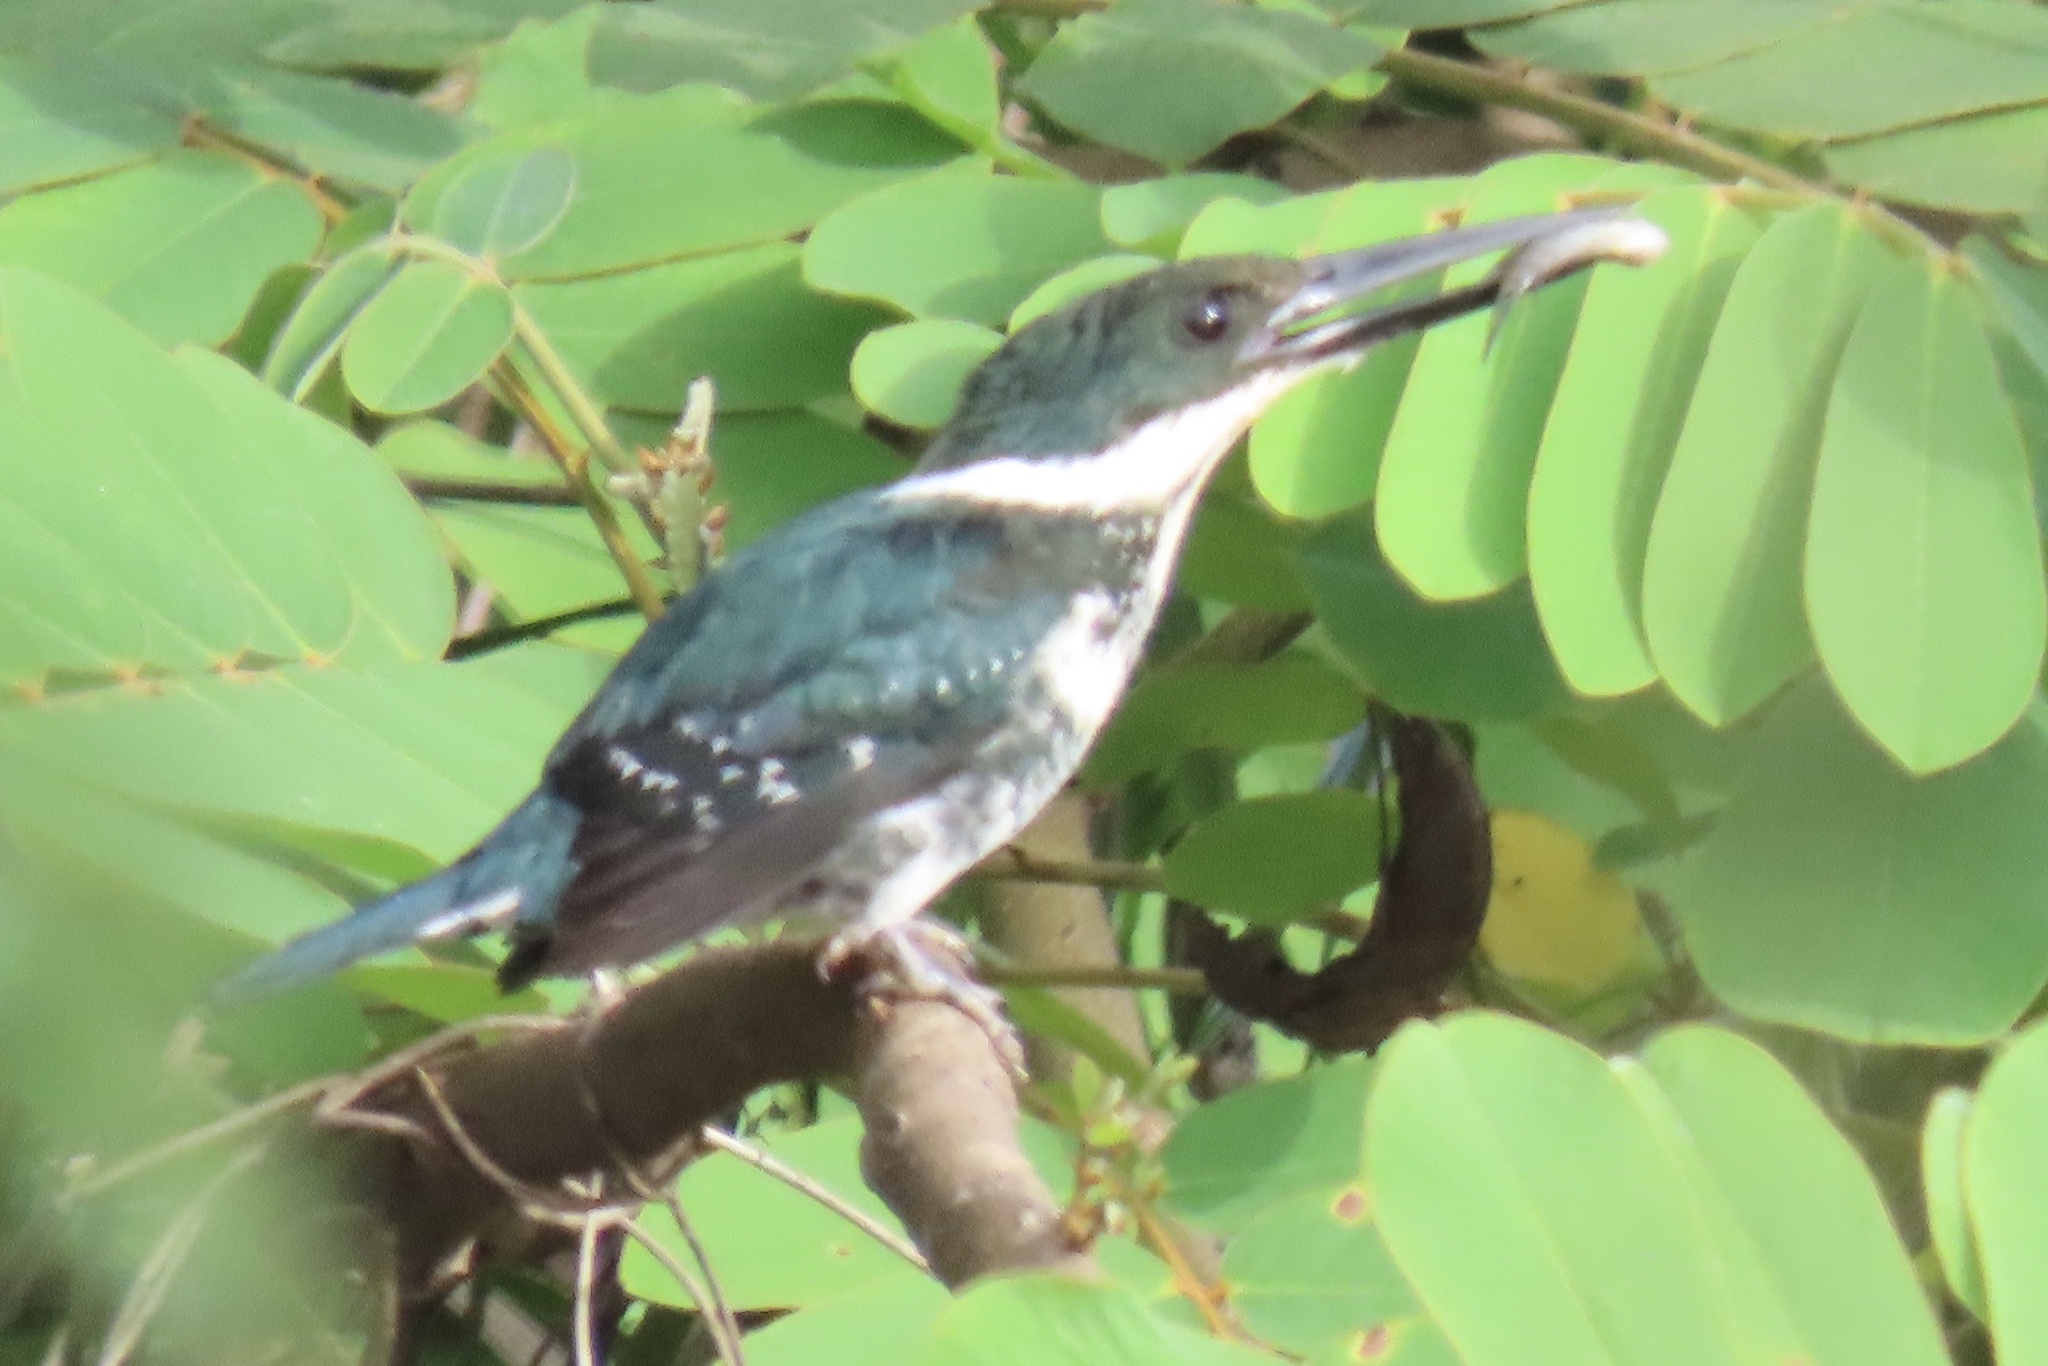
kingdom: Animalia
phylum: Chordata
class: Aves
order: Coraciiformes
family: Alcedinidae
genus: Chloroceryle
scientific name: Chloroceryle americana
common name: Green kingfisher
